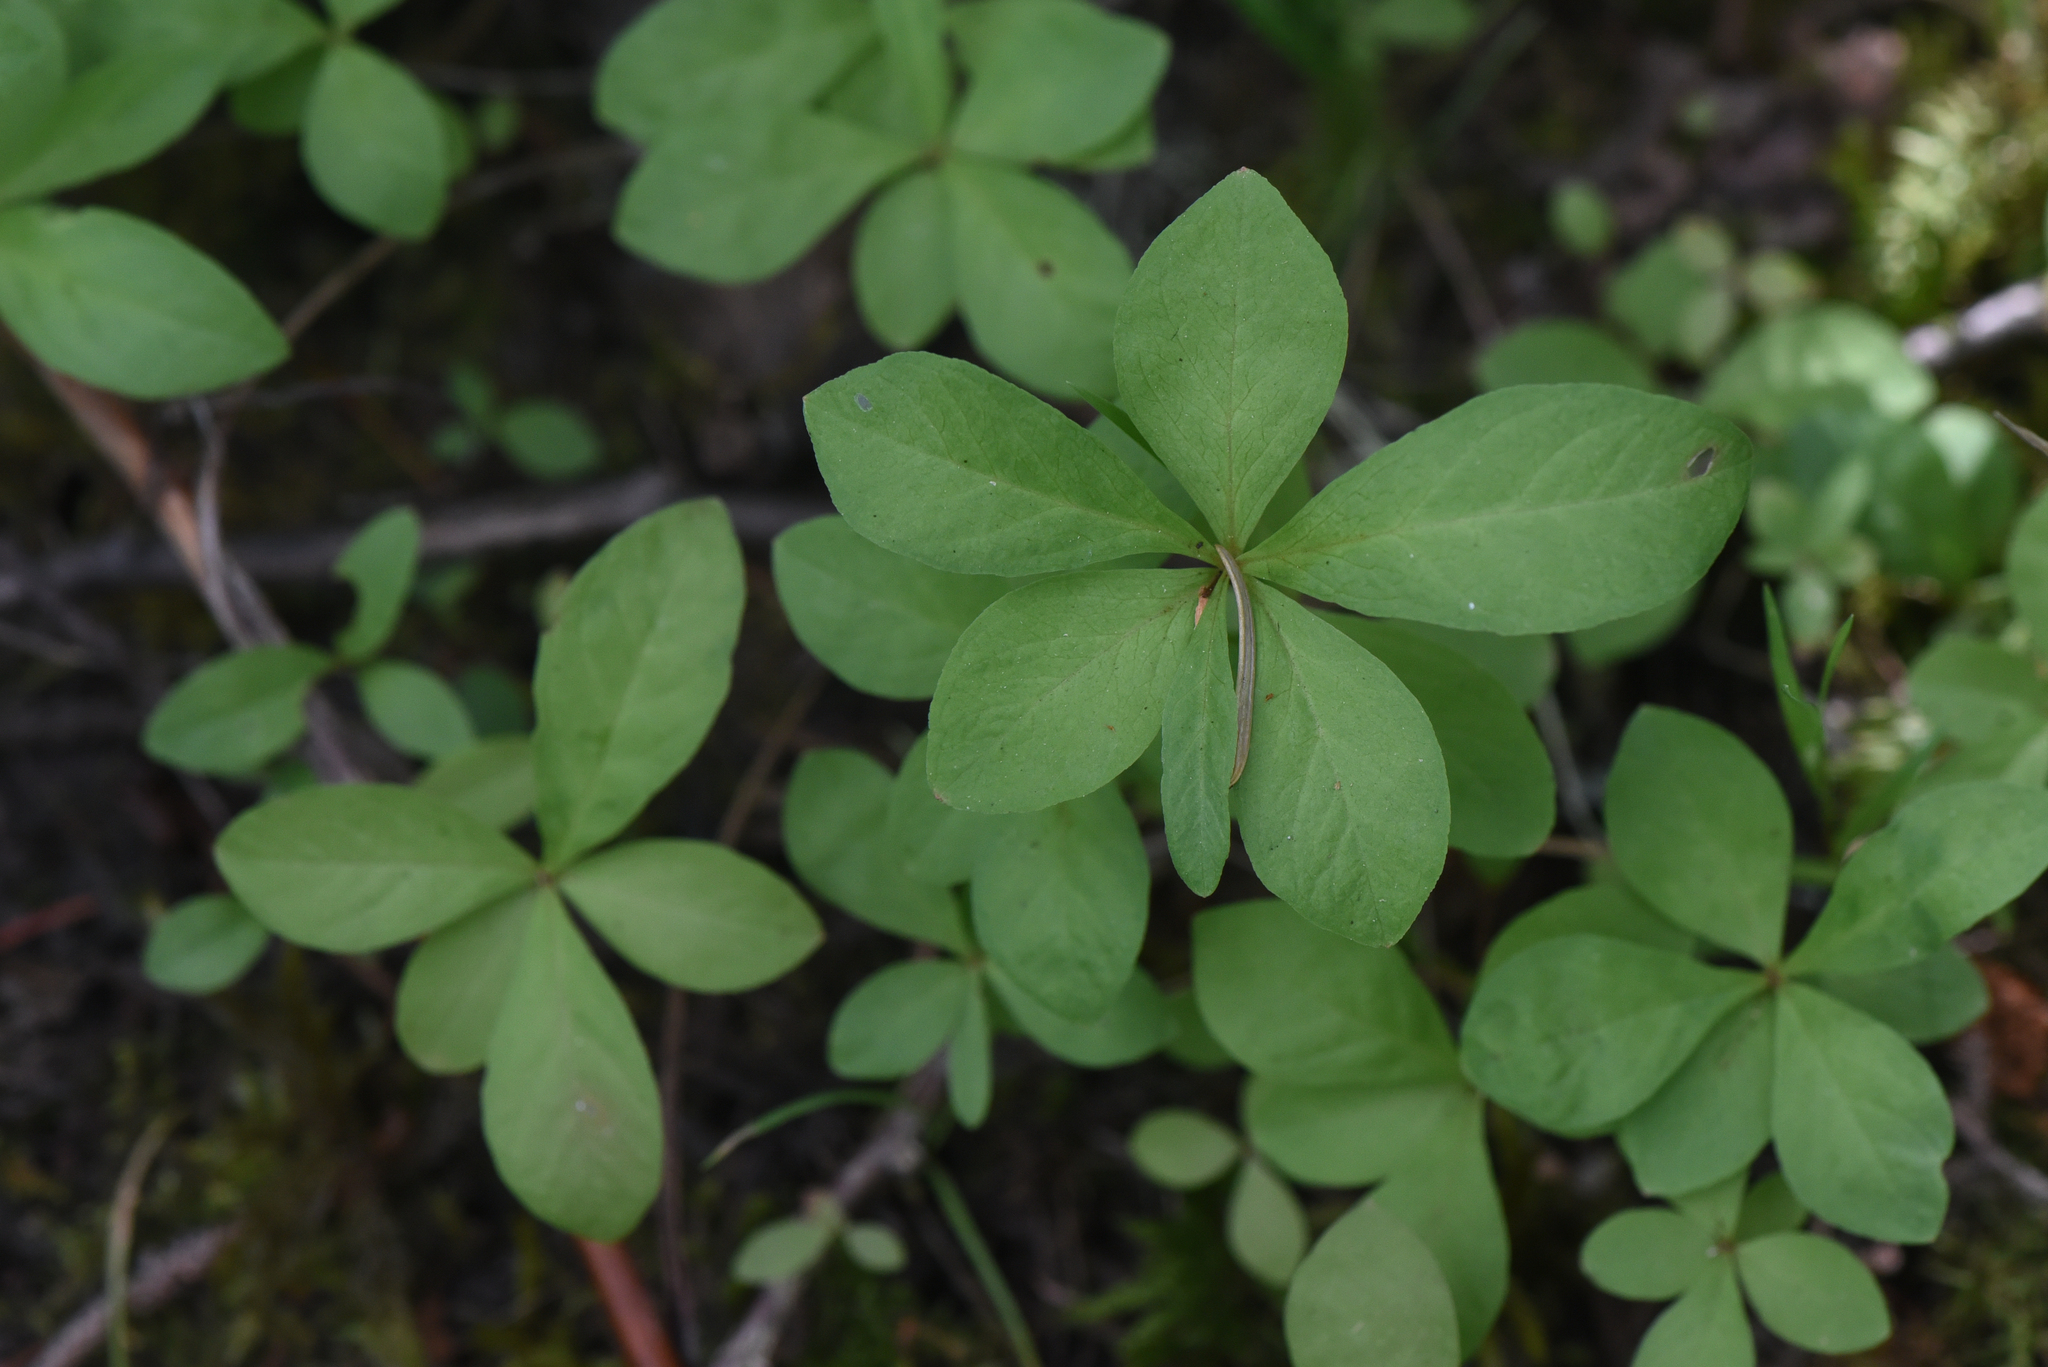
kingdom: Plantae
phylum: Tracheophyta
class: Magnoliopsida
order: Ericales
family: Primulaceae
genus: Lysimachia
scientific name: Lysimachia europaea
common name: Arctic starflower
